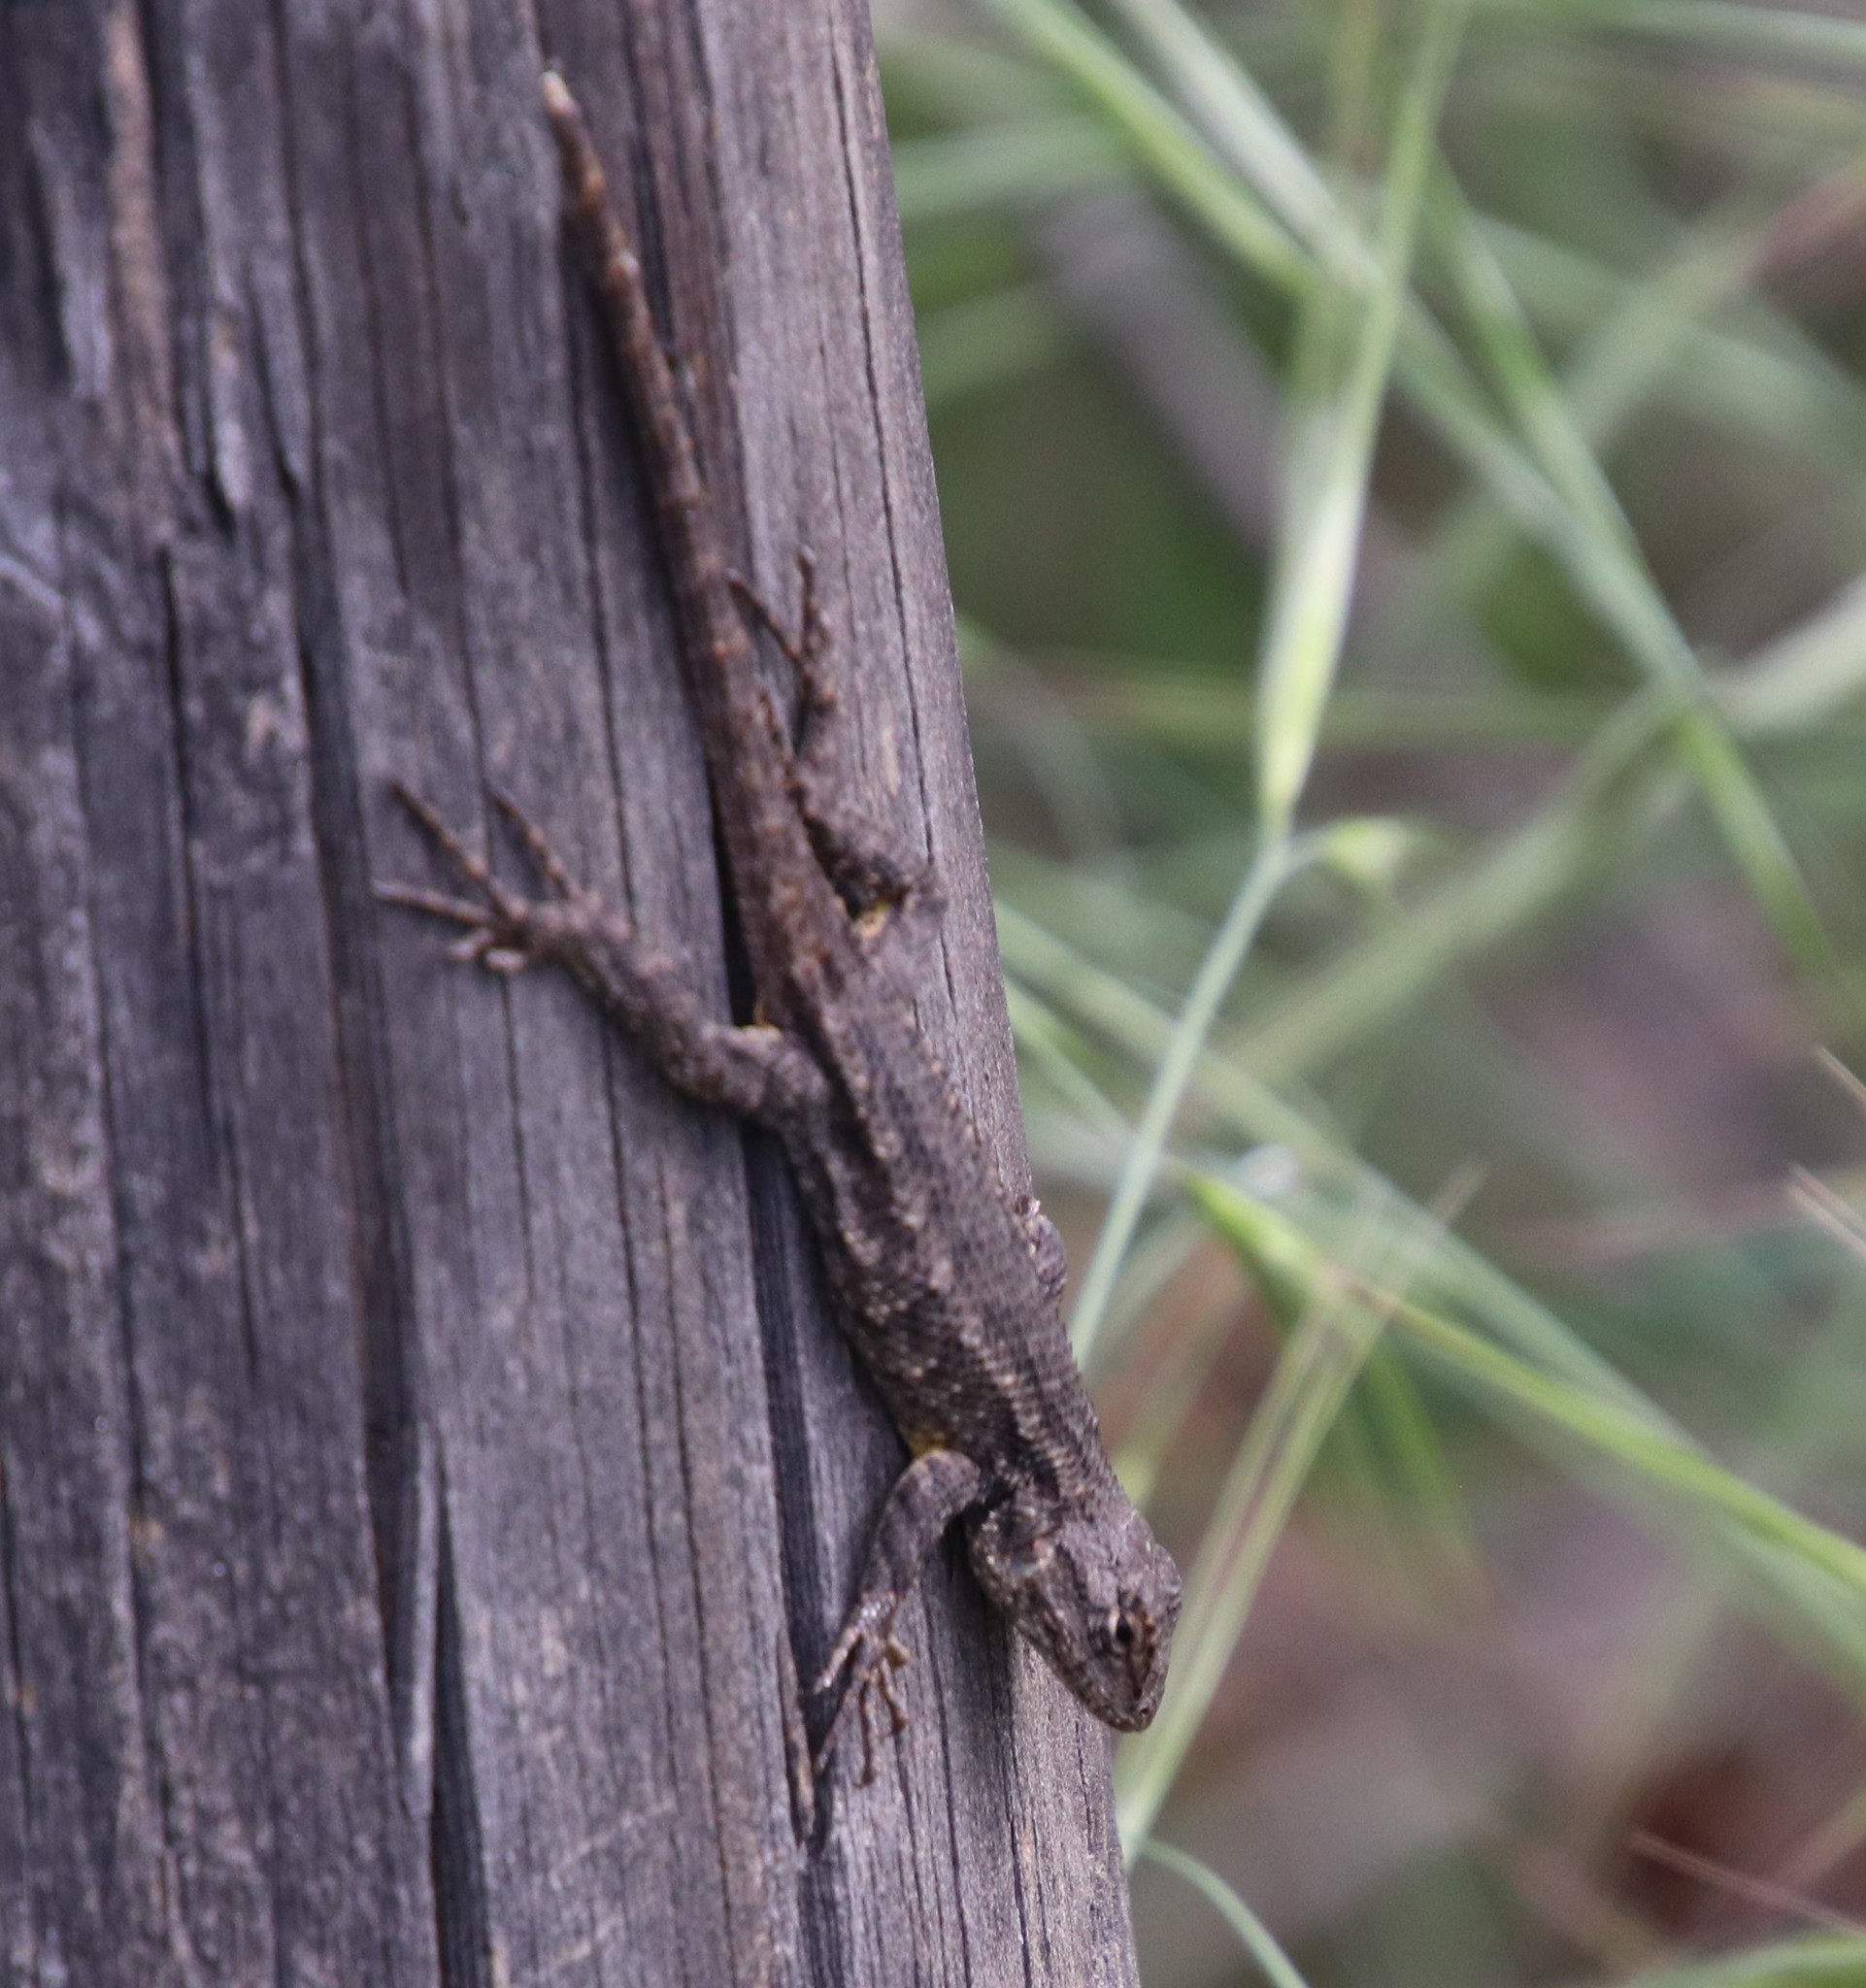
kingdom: Animalia
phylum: Chordata
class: Squamata
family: Phrynosomatidae
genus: Sceloporus
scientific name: Sceloporus occidentalis
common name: Western fence lizard
